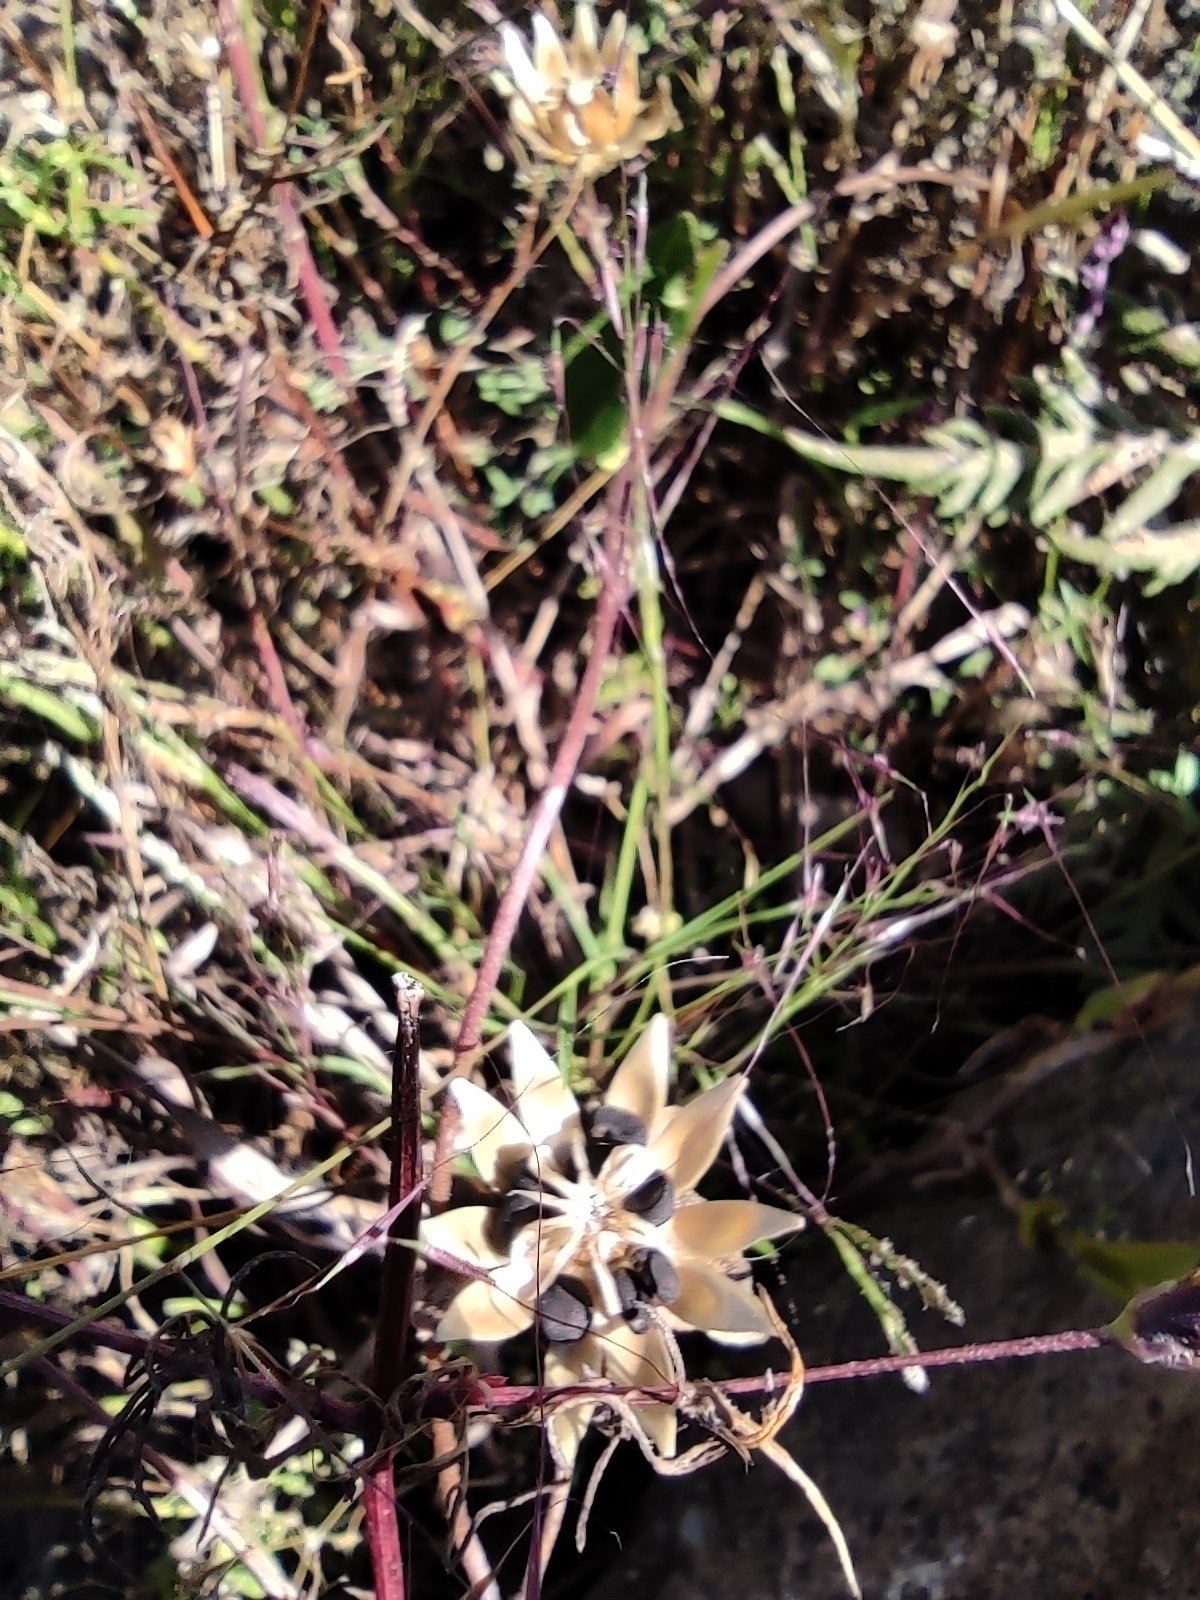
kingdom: Plantae
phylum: Tracheophyta
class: Magnoliopsida
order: Solanales
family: Convolvulaceae
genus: Ipomoea
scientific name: Ipomoea decasperma
